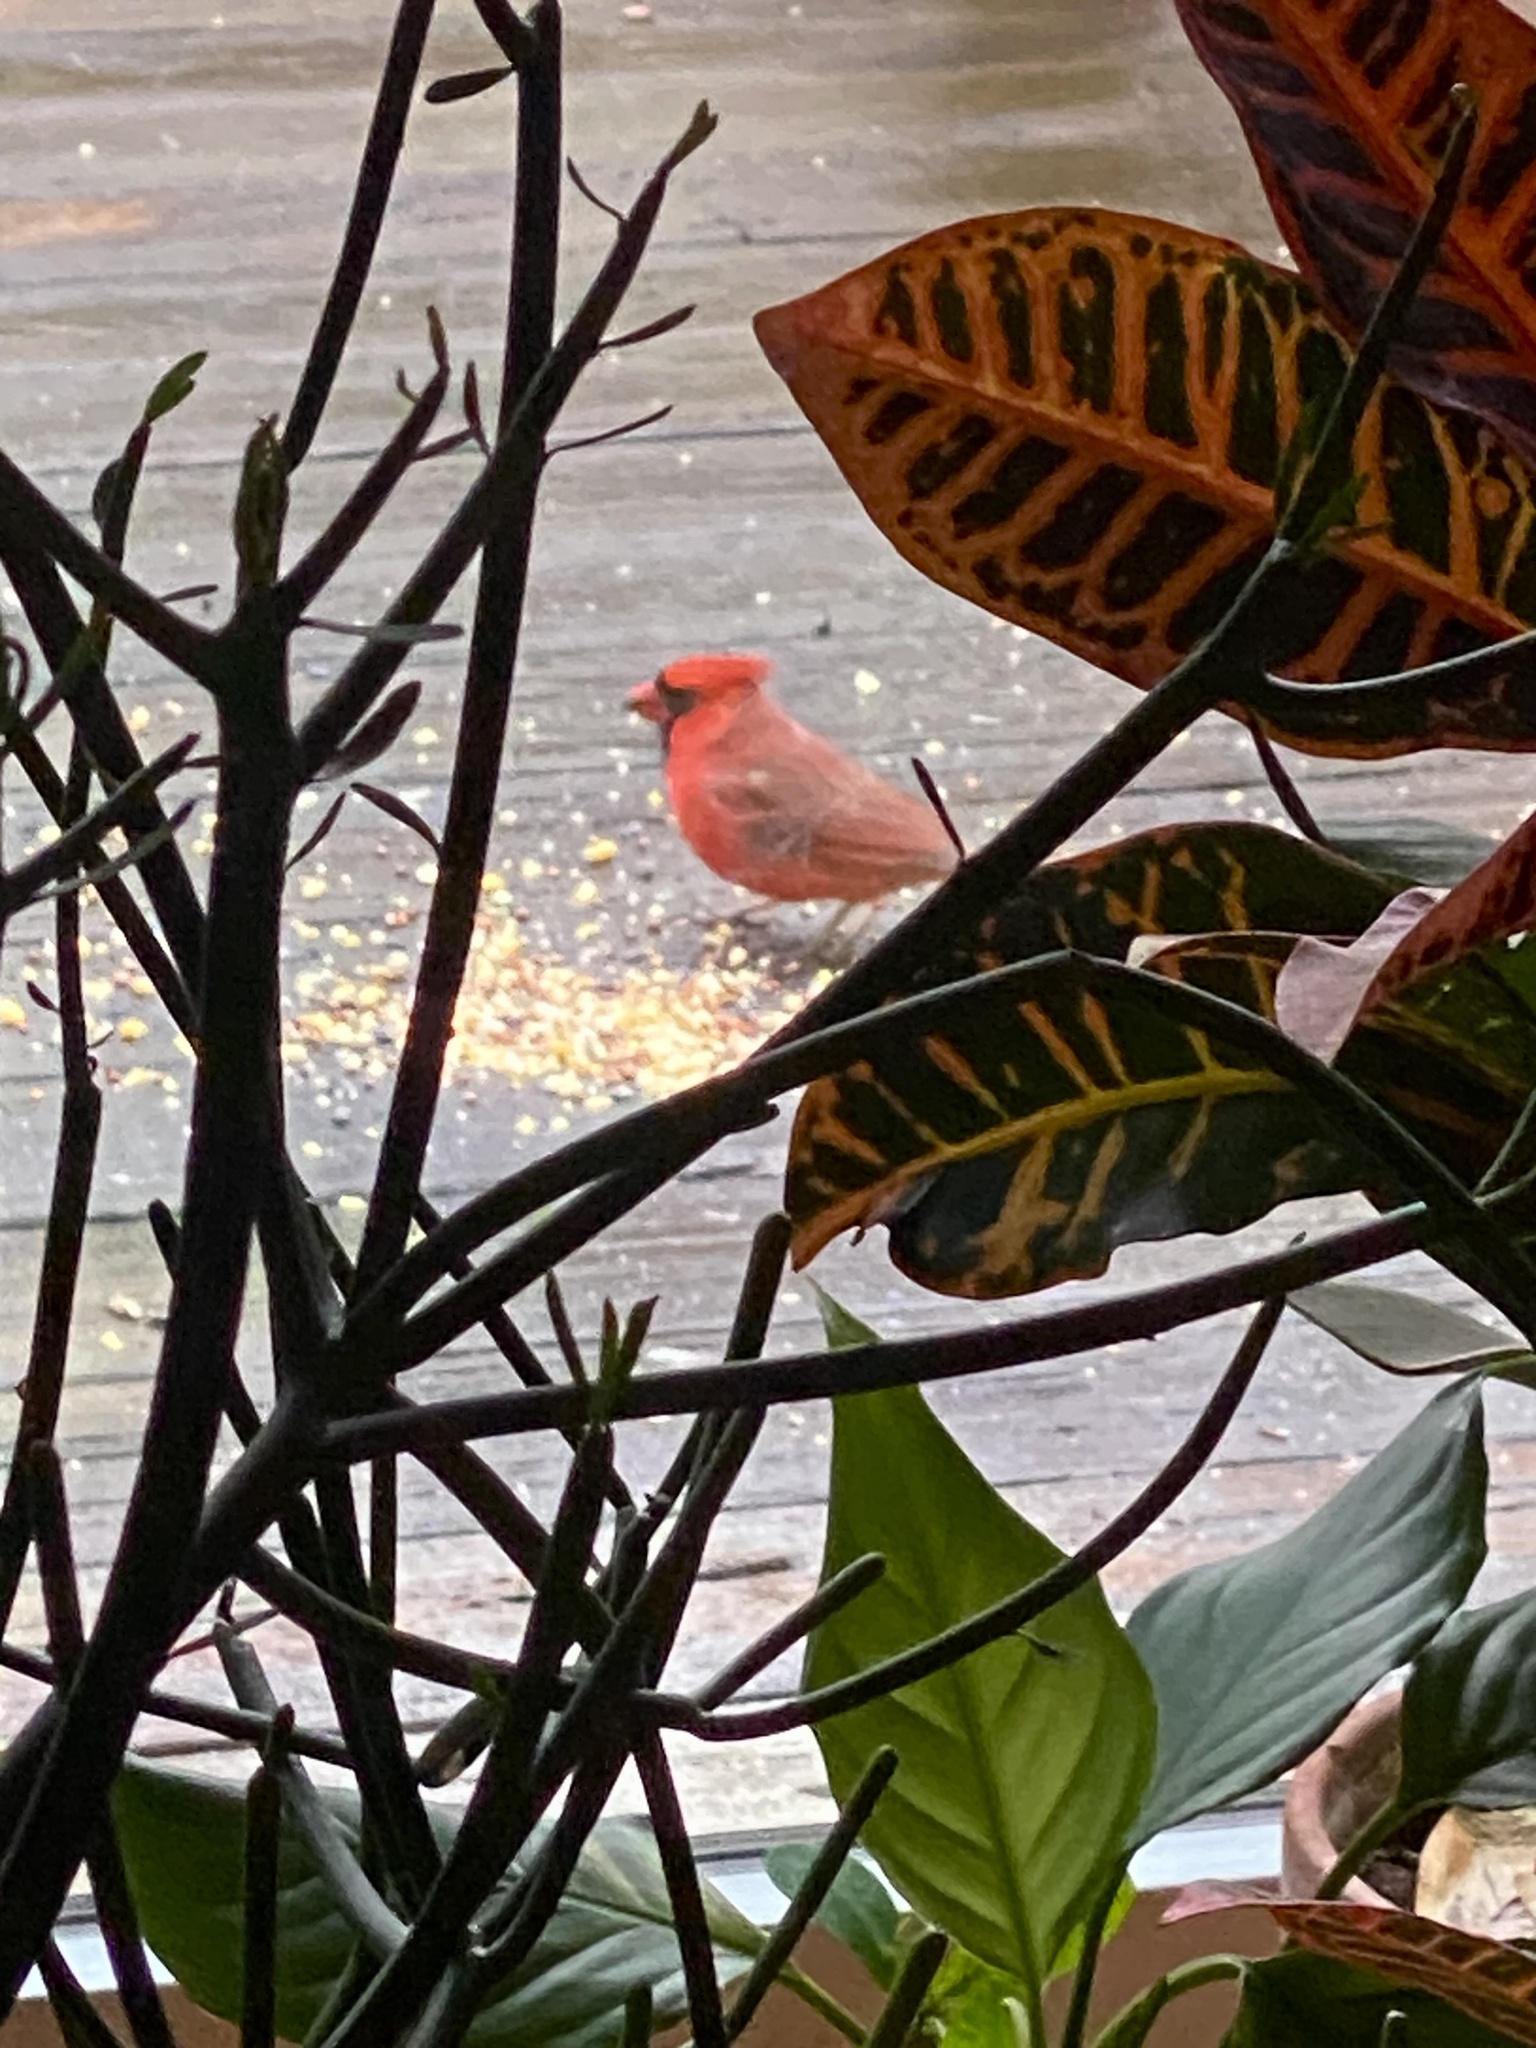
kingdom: Animalia
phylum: Chordata
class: Aves
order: Passeriformes
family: Cardinalidae
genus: Cardinalis
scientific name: Cardinalis cardinalis
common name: Northern cardinal
